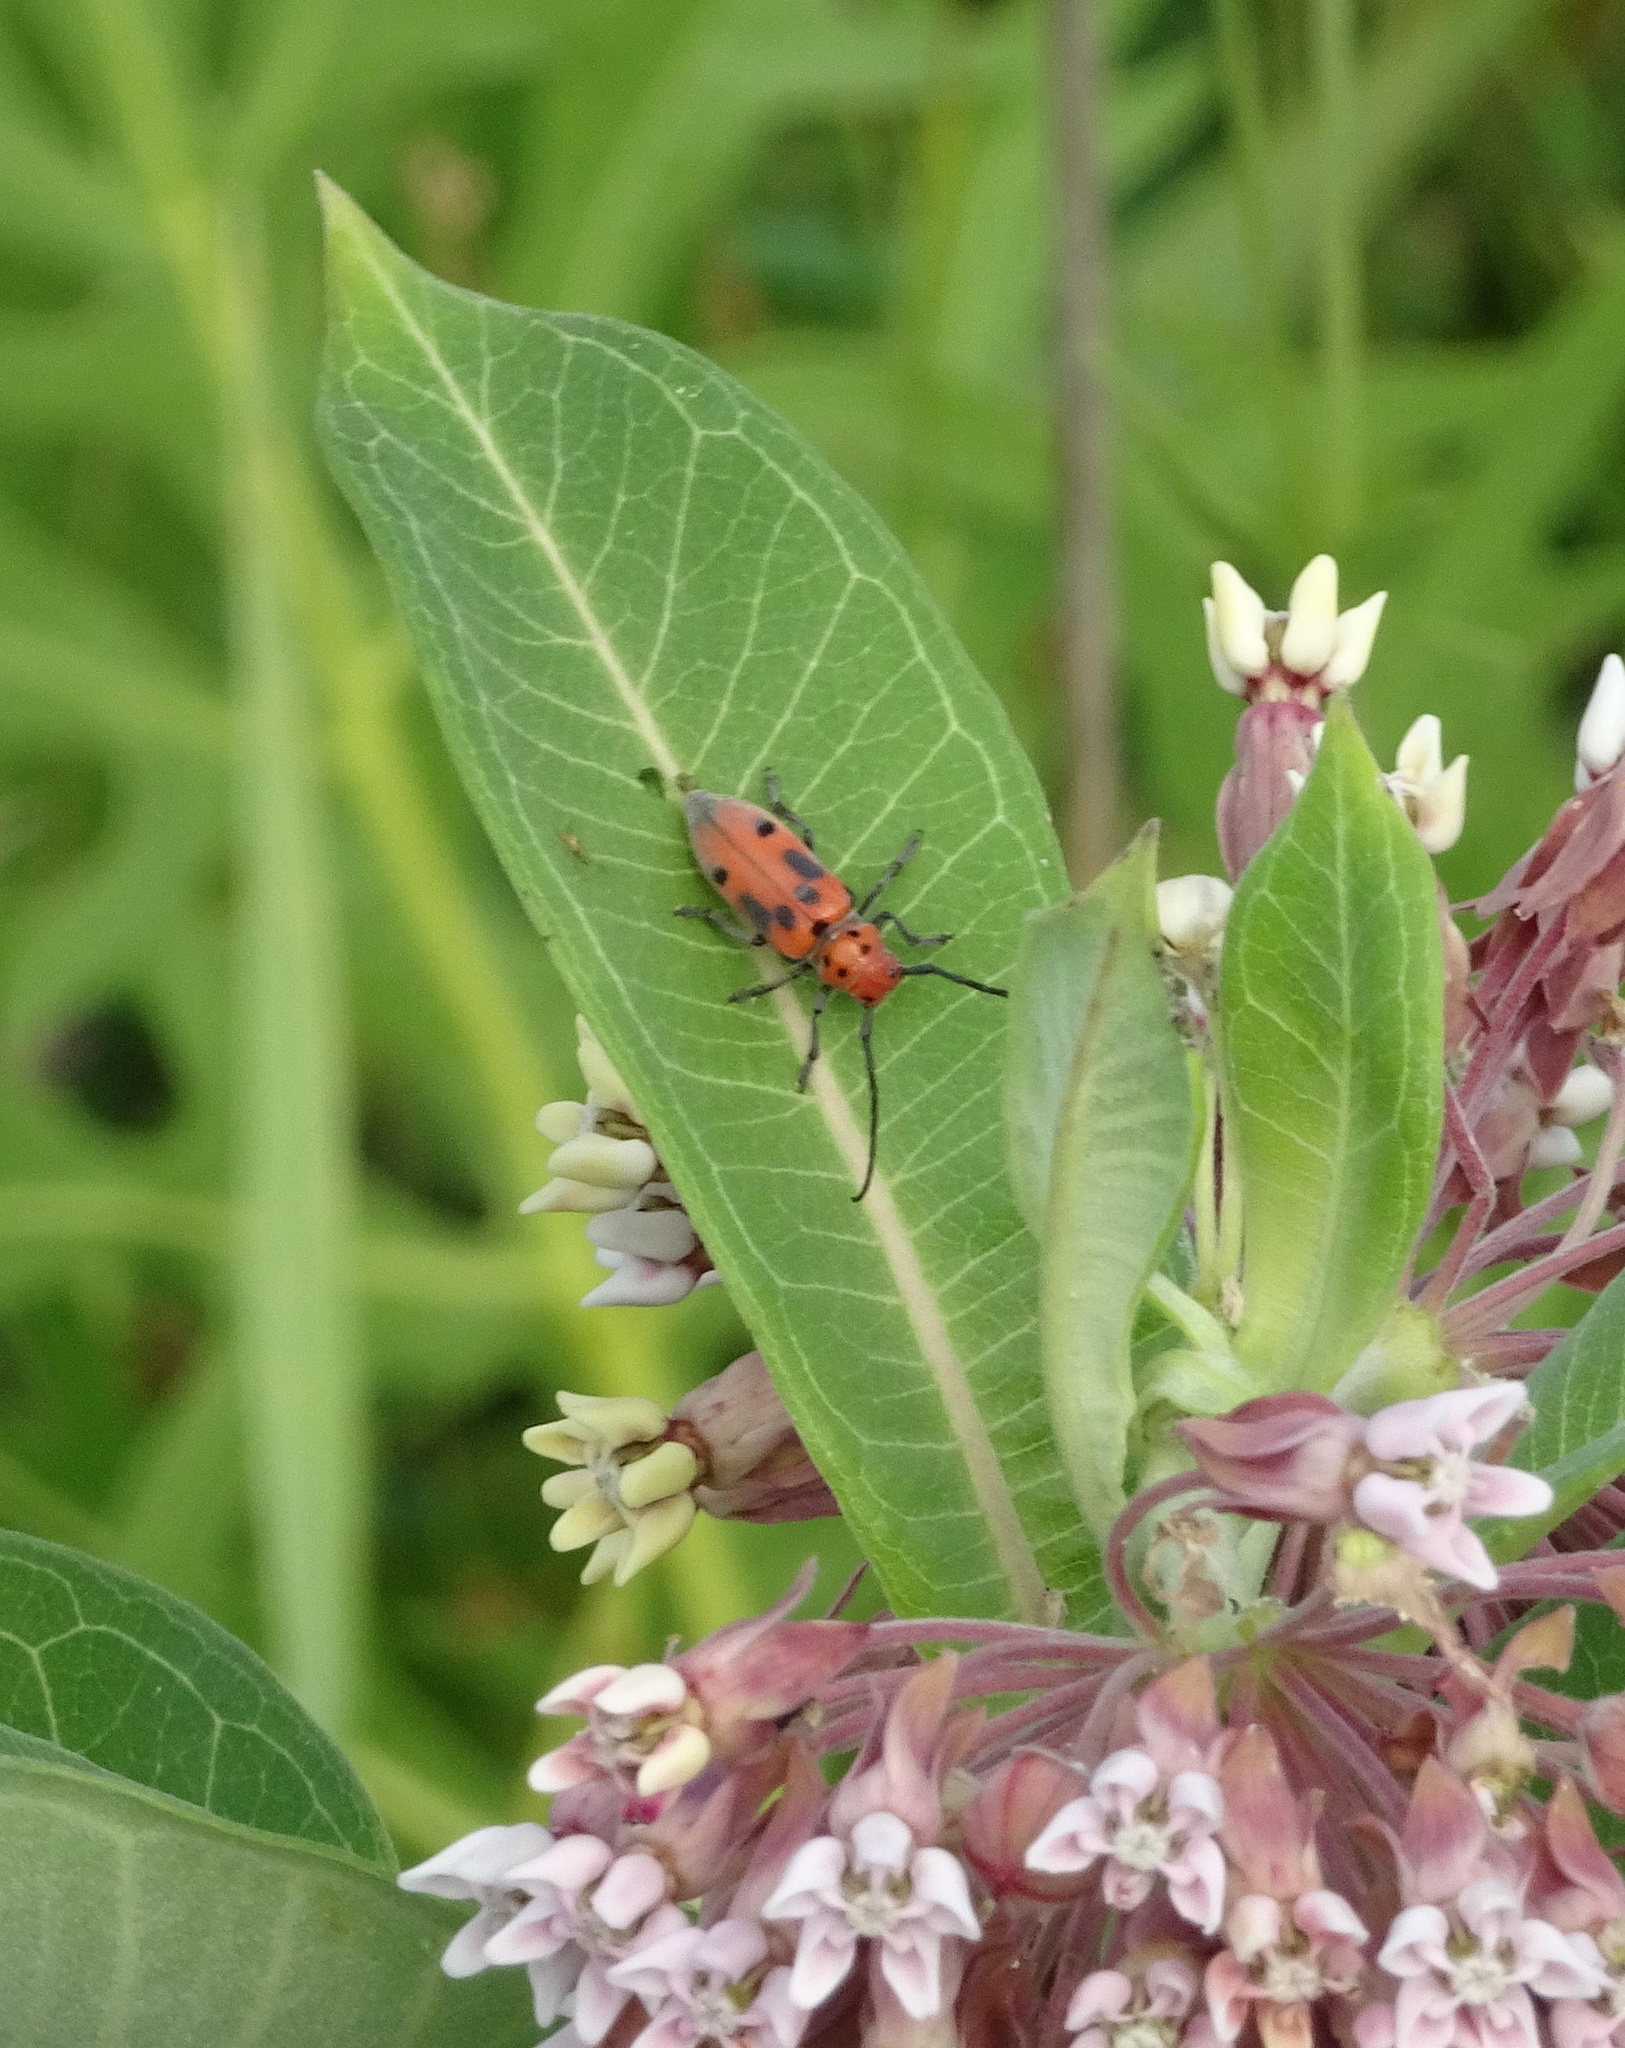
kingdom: Animalia
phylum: Arthropoda
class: Insecta
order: Coleoptera
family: Cerambycidae
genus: Tetraopes
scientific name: Tetraopes tetrophthalmus
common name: Red milkweed beetle
